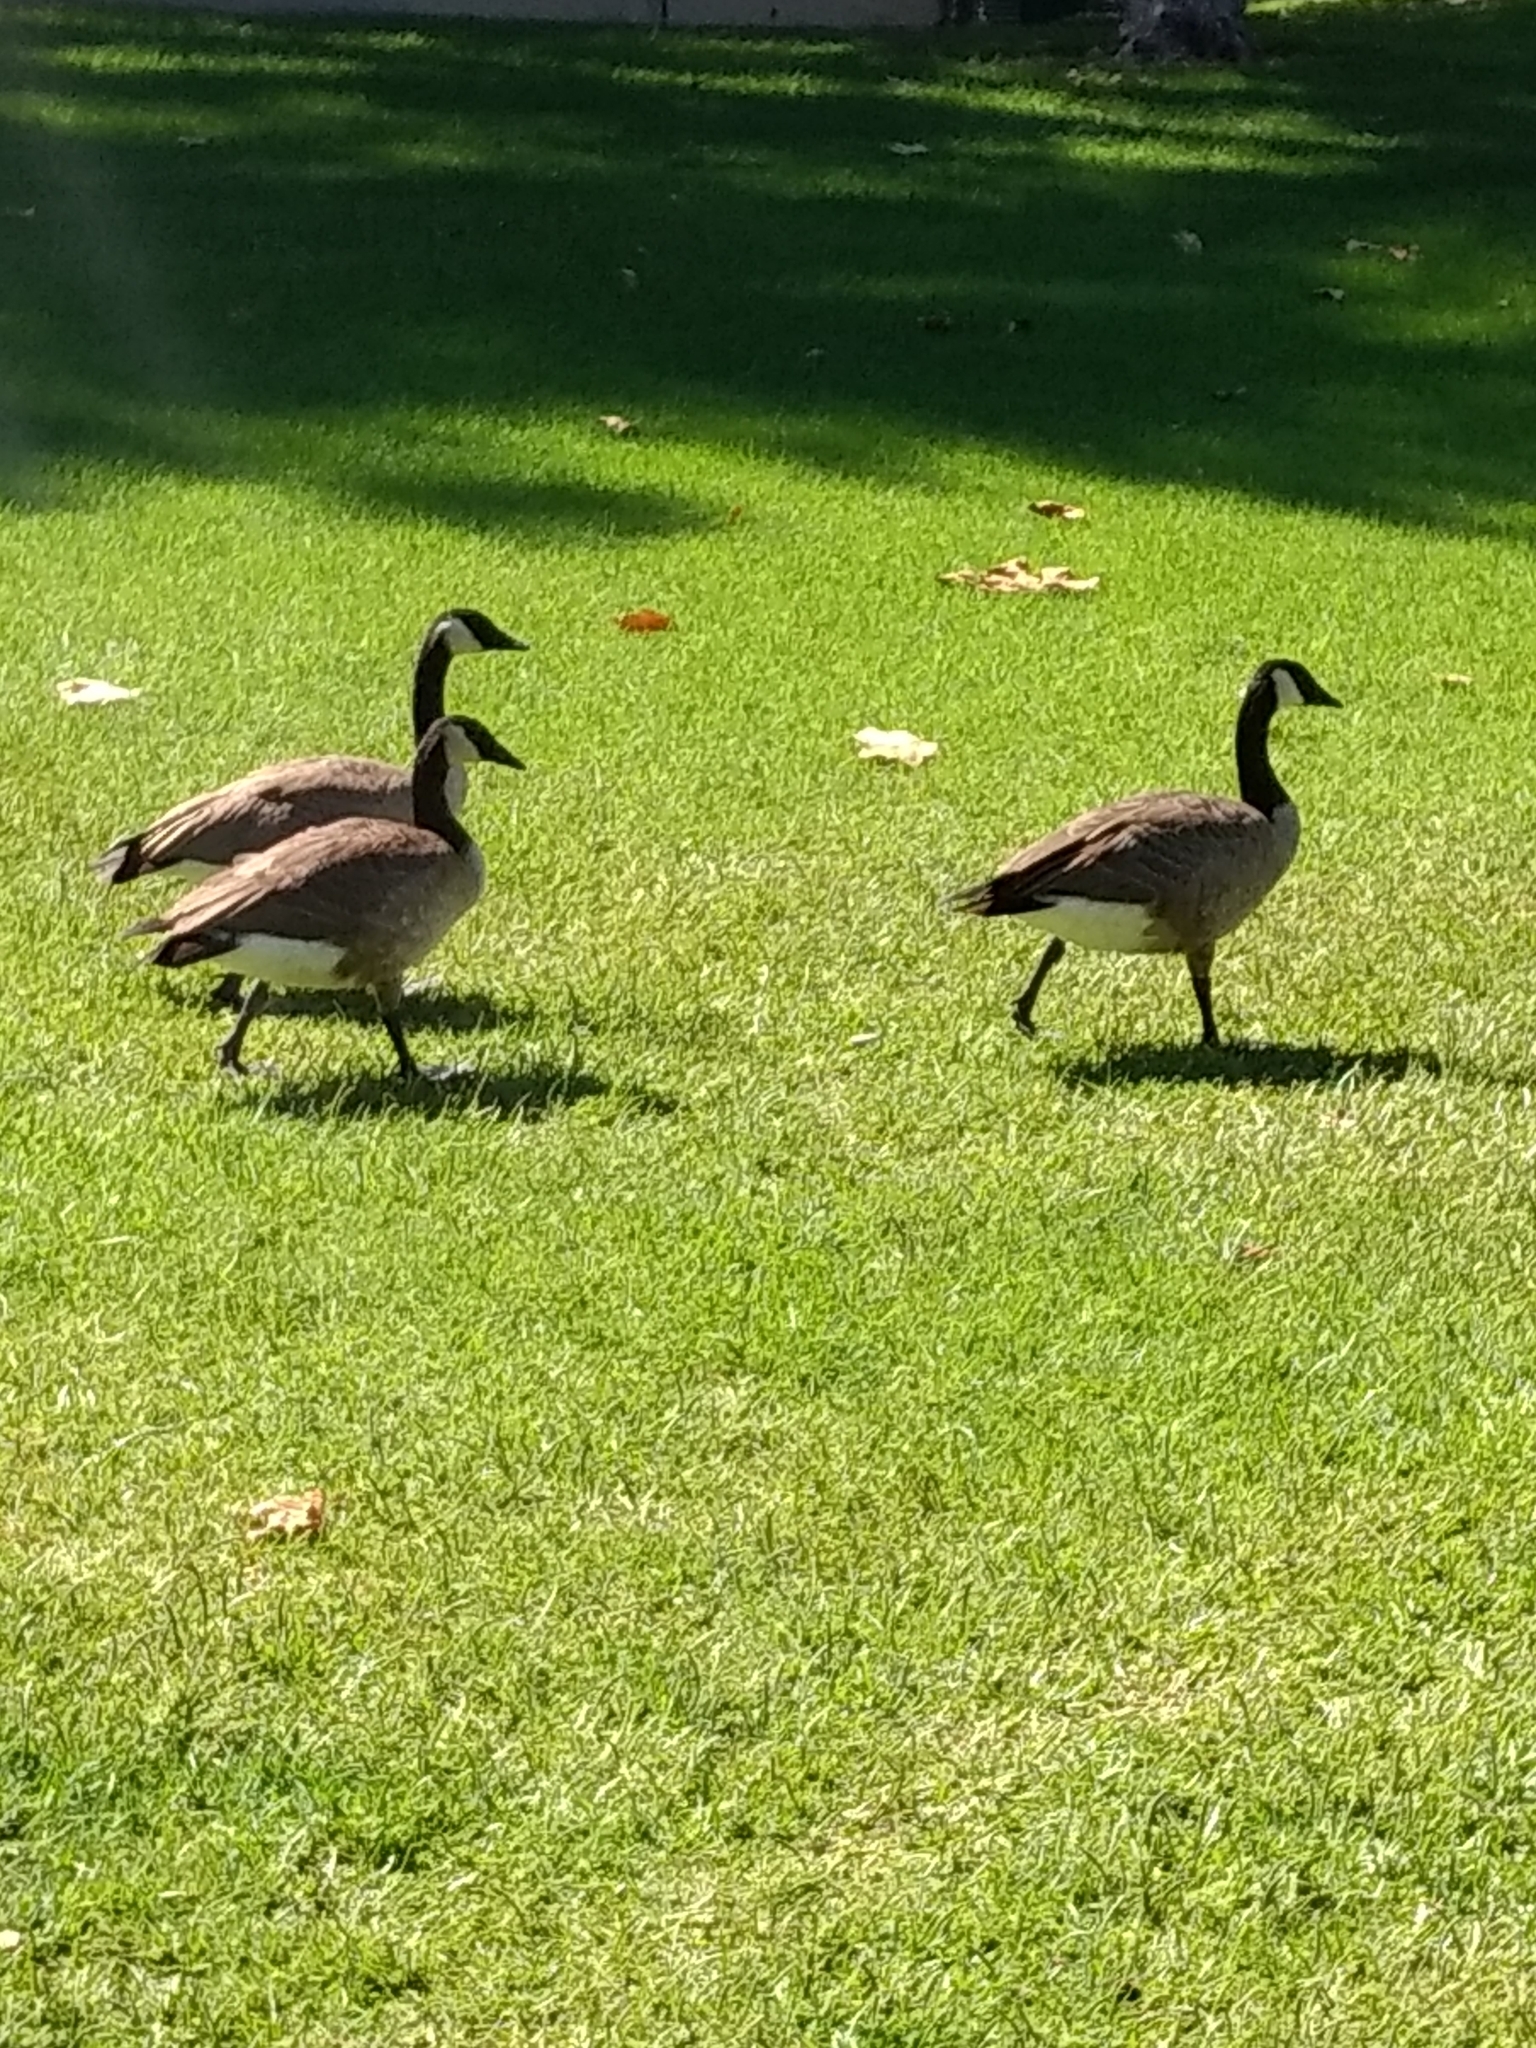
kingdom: Animalia
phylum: Chordata
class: Aves
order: Anseriformes
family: Anatidae
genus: Branta
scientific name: Branta canadensis
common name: Canada goose
